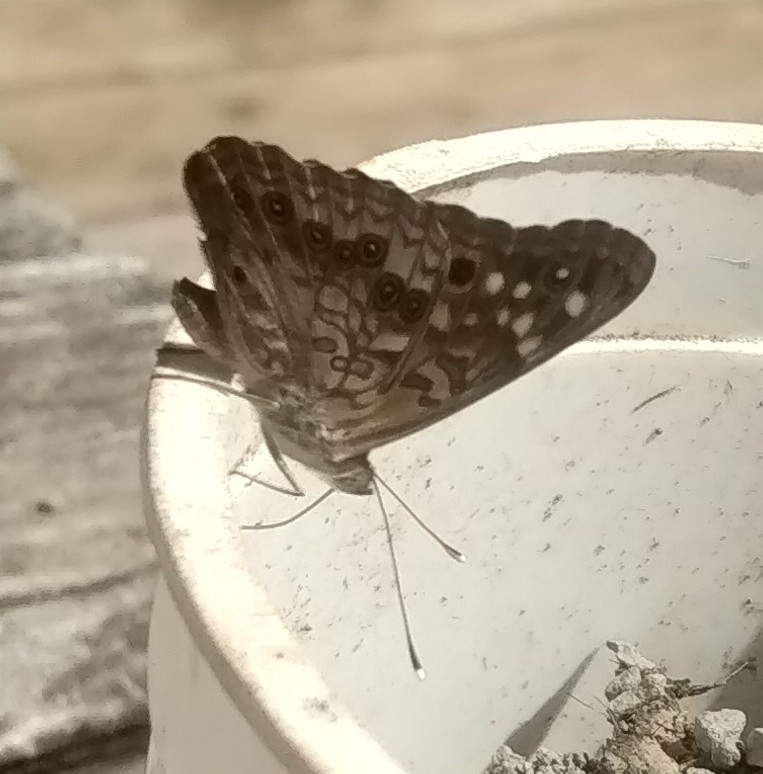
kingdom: Animalia
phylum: Arthropoda
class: Insecta
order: Lepidoptera
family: Nymphalidae
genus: Asterocampa
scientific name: Asterocampa celtis
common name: Hackberry emperor
